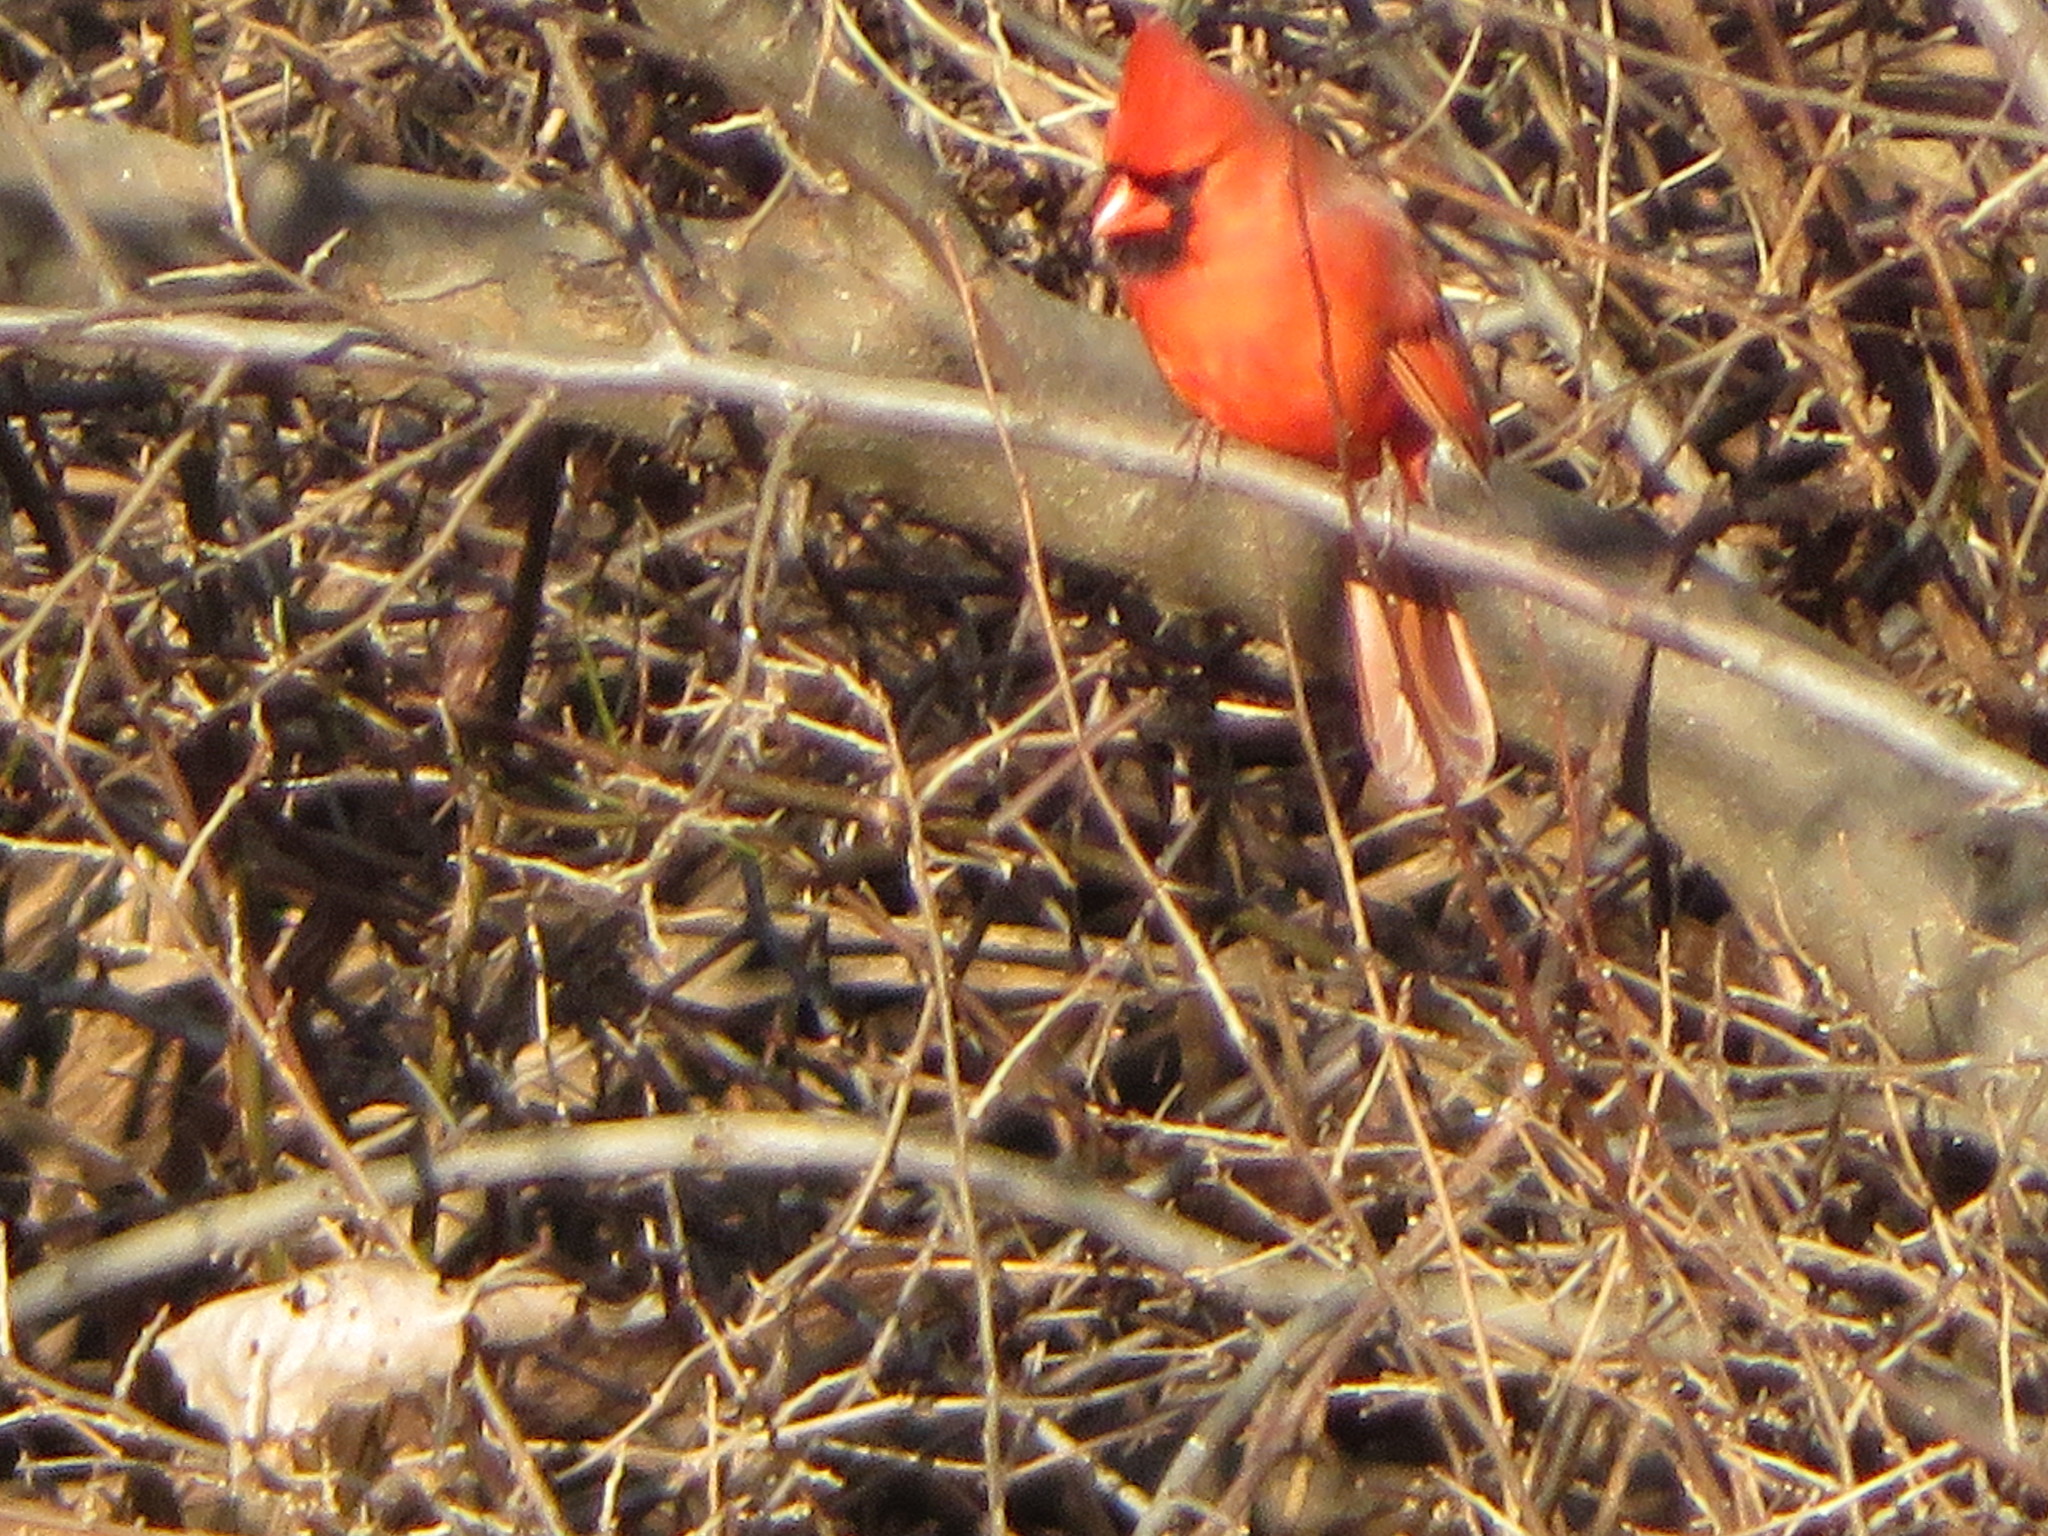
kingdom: Animalia
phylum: Chordata
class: Aves
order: Passeriformes
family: Cardinalidae
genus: Cardinalis
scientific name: Cardinalis cardinalis
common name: Northern cardinal
